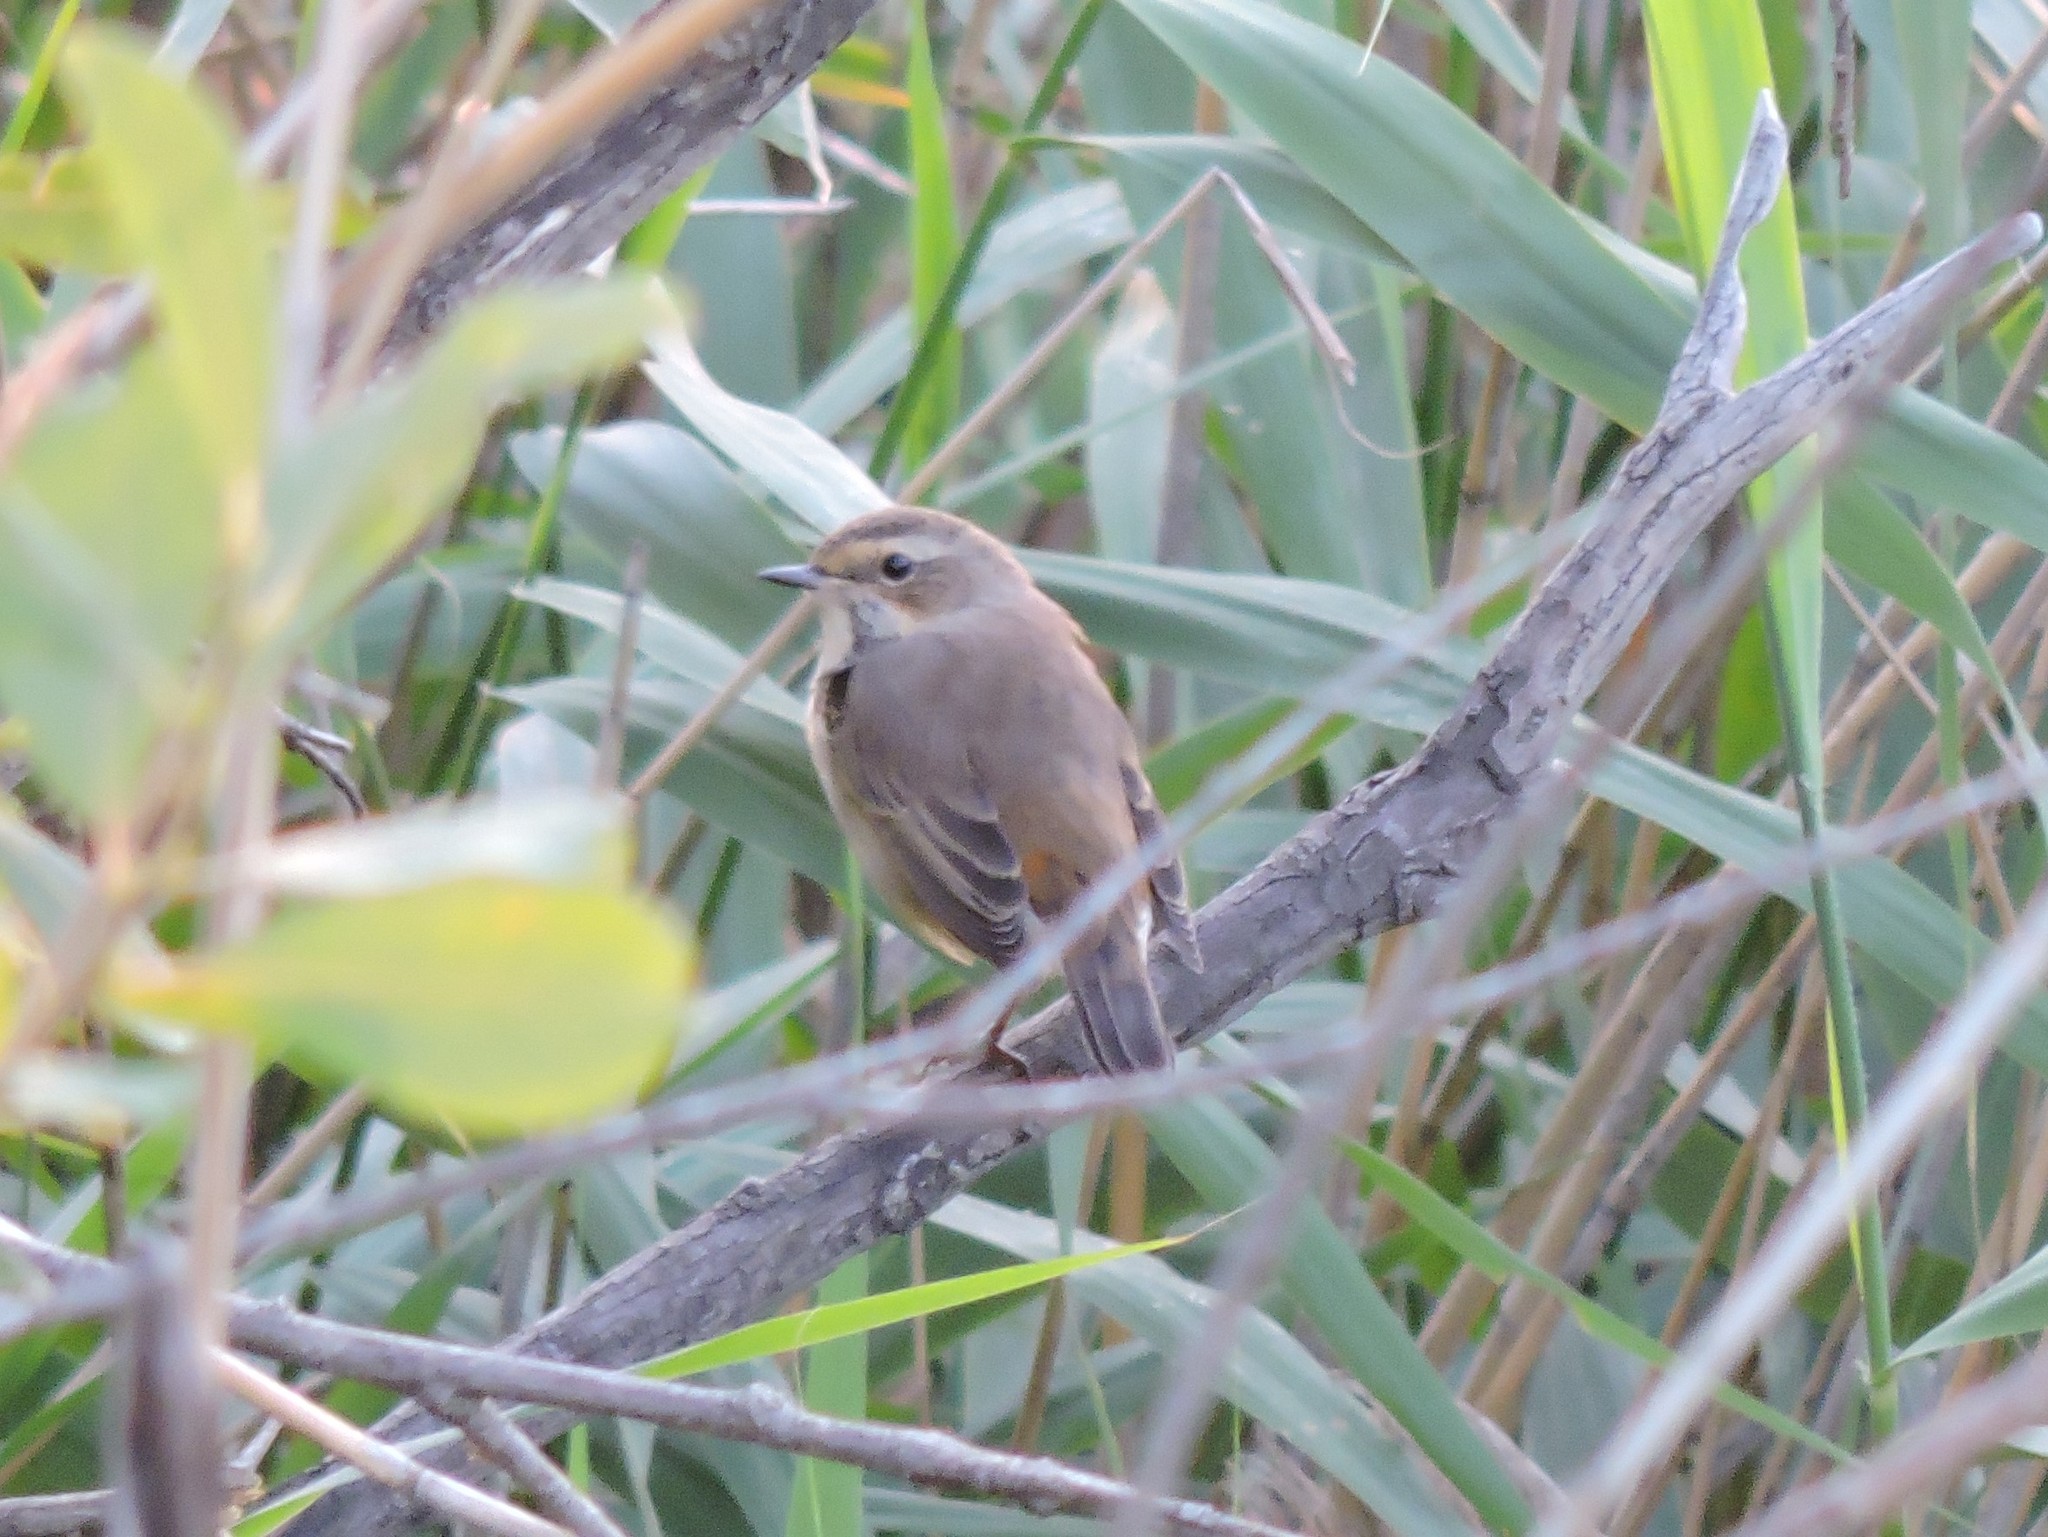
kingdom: Animalia
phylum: Chordata
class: Aves
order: Passeriformes
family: Muscicapidae
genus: Luscinia
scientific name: Luscinia svecica
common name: Bluethroat
